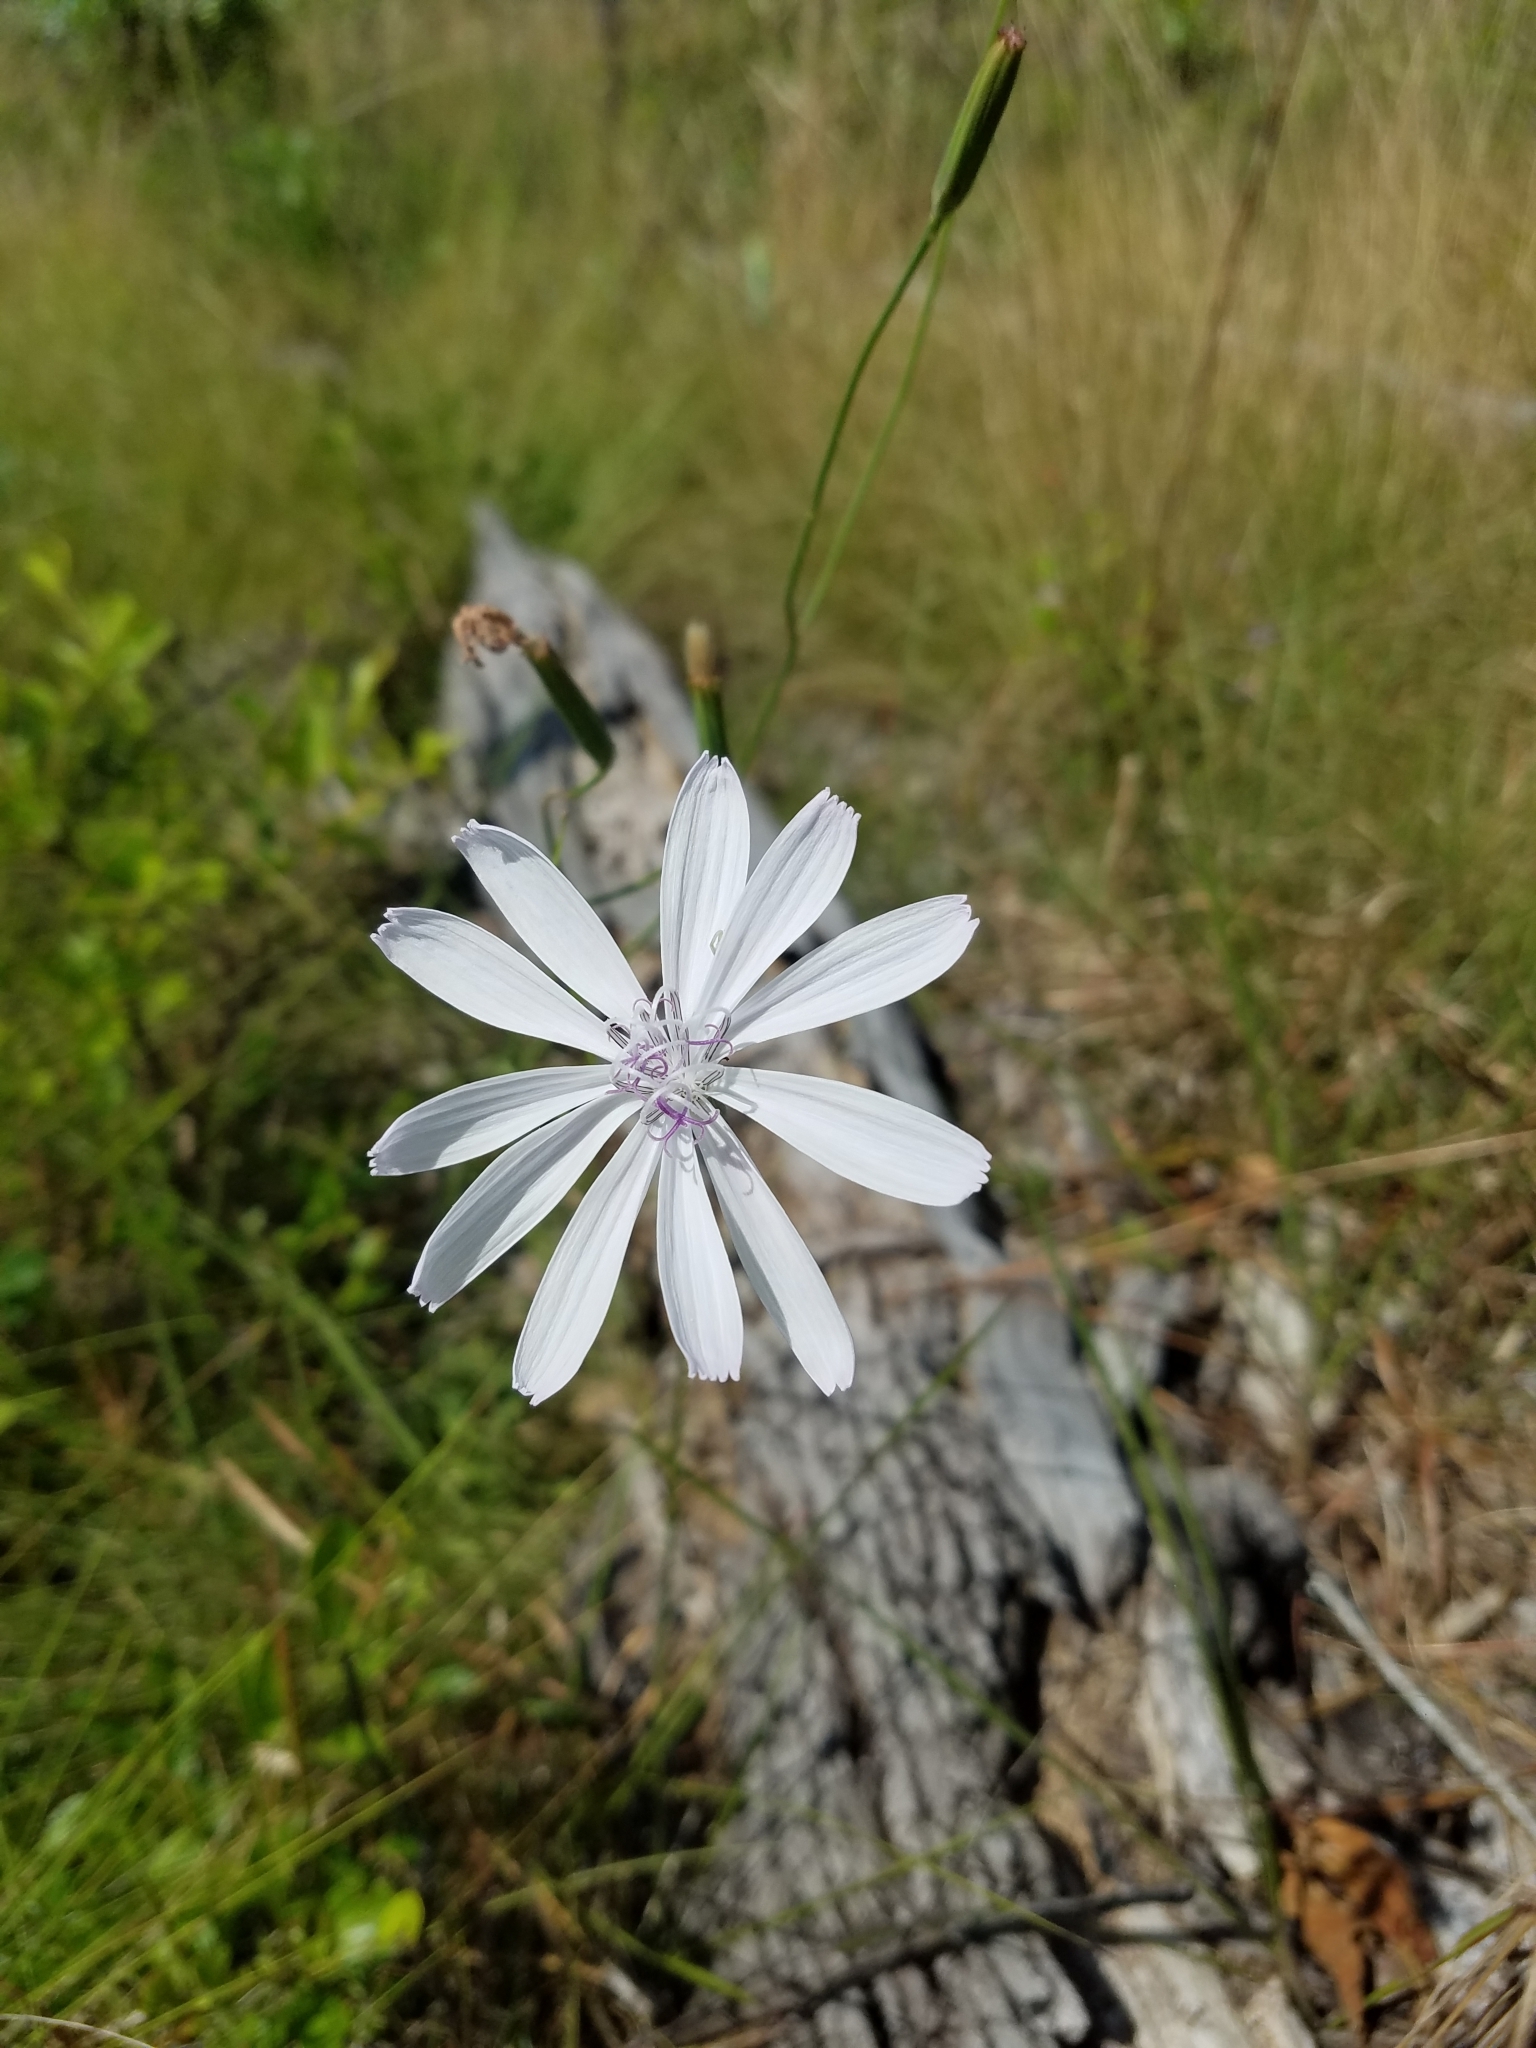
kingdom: Plantae
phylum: Tracheophyta
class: Magnoliopsida
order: Asterales
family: Asteraceae
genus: Lygodesmia
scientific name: Lygodesmia aphylla
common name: Rose-rush
